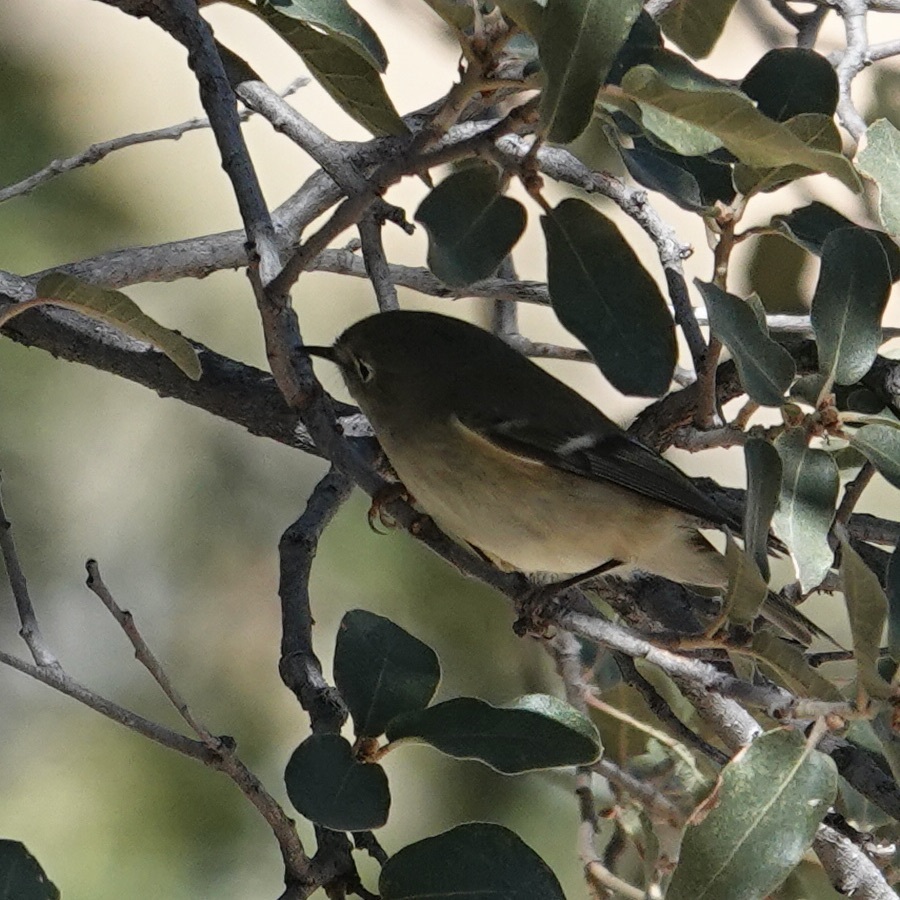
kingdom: Animalia
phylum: Chordata
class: Aves
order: Passeriformes
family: Regulidae
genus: Regulus
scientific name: Regulus calendula
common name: Ruby-crowned kinglet
